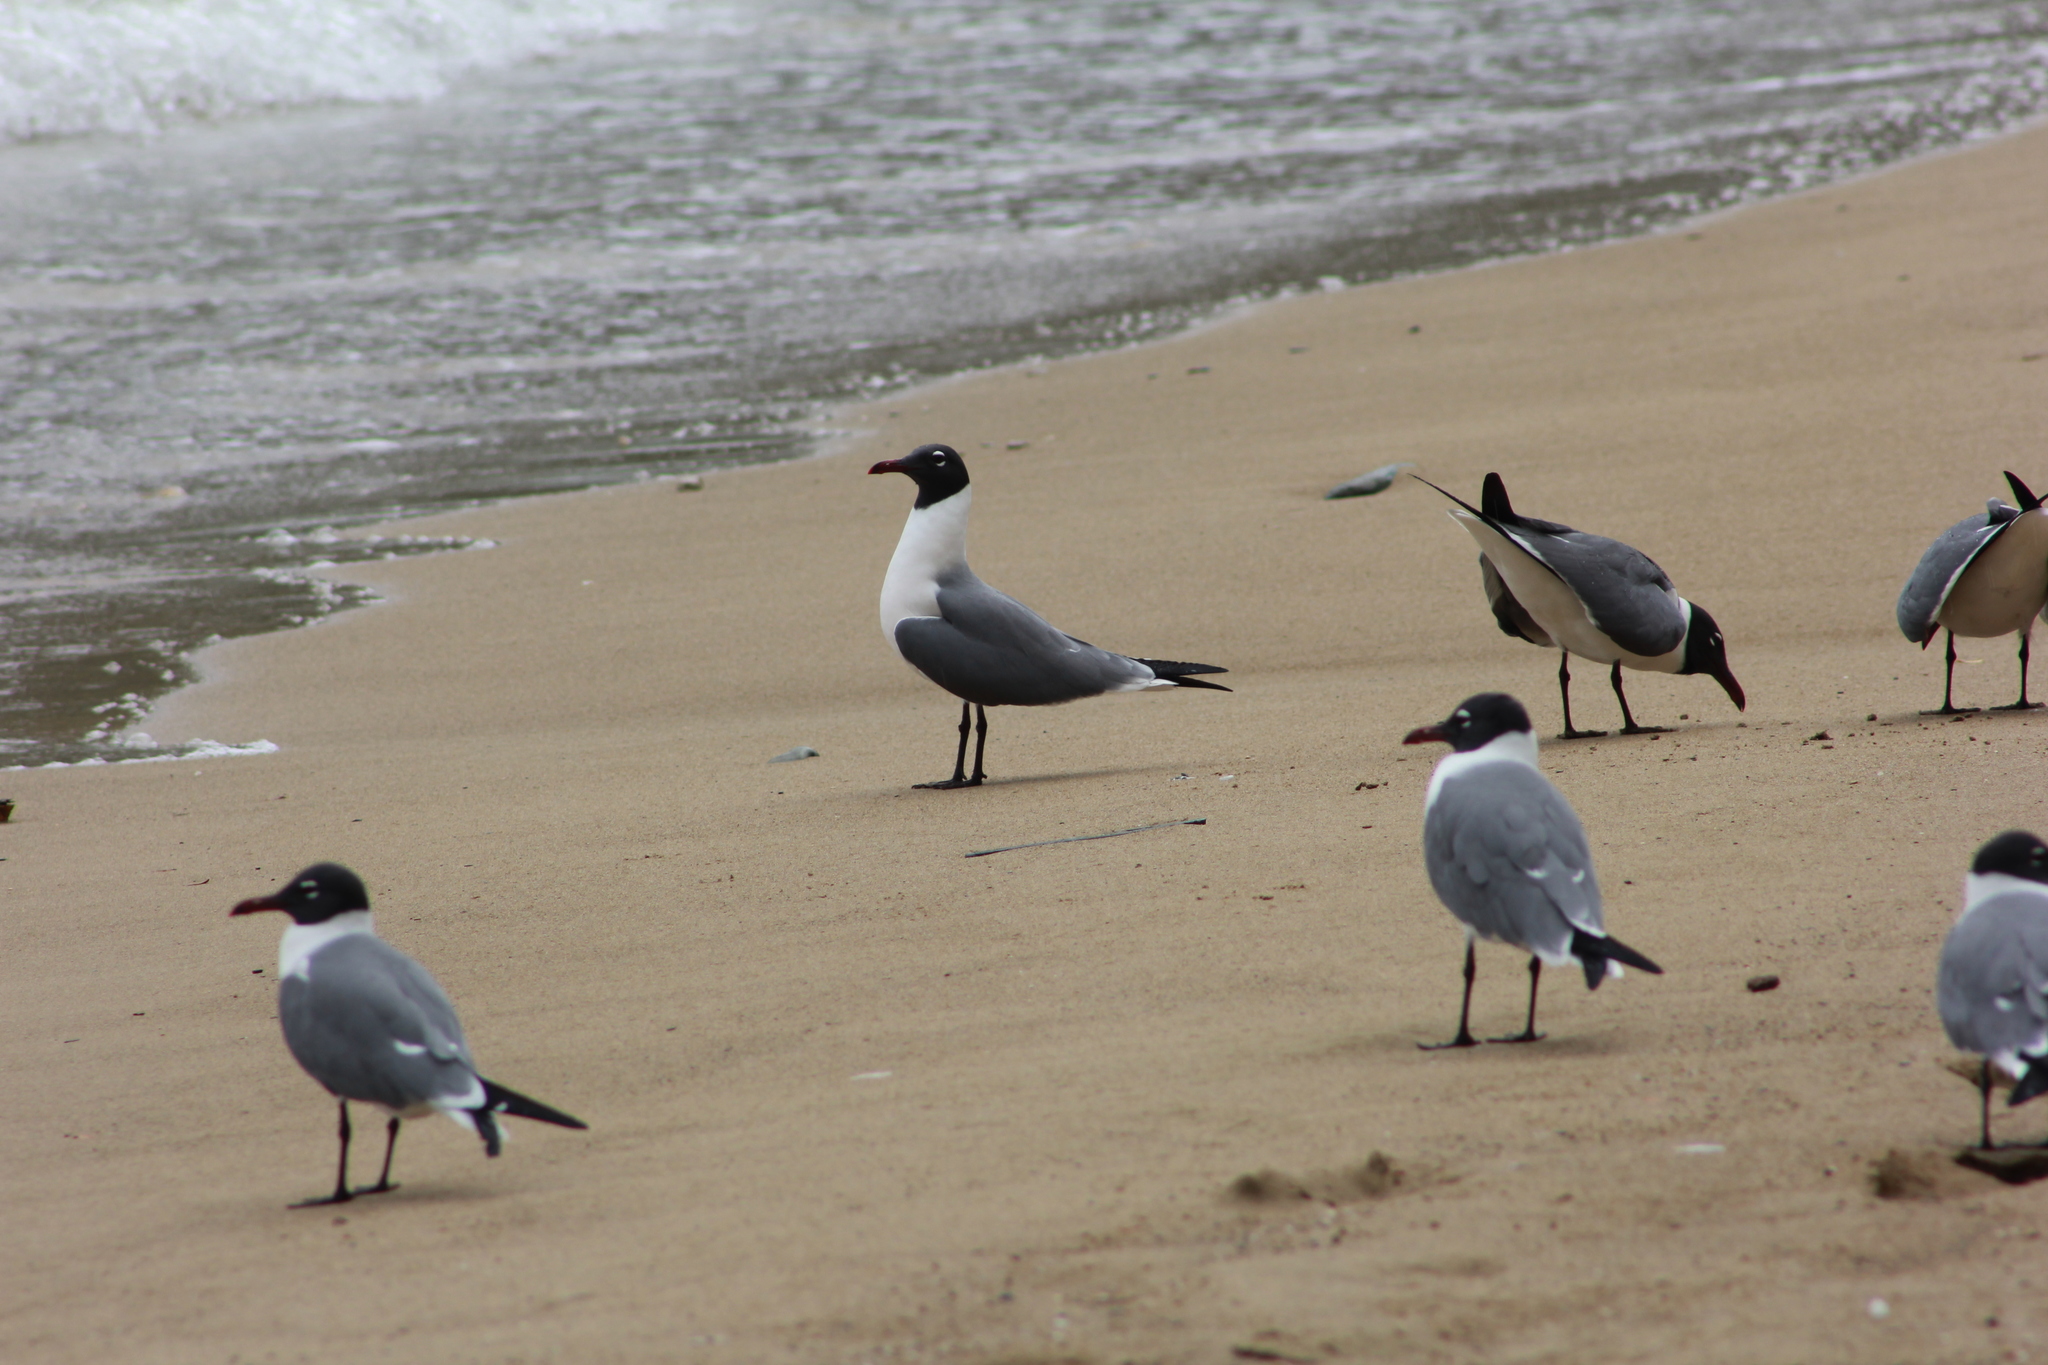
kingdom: Animalia
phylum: Chordata
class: Aves
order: Charadriiformes
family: Laridae
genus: Leucophaeus
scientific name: Leucophaeus atricilla
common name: Laughing gull
